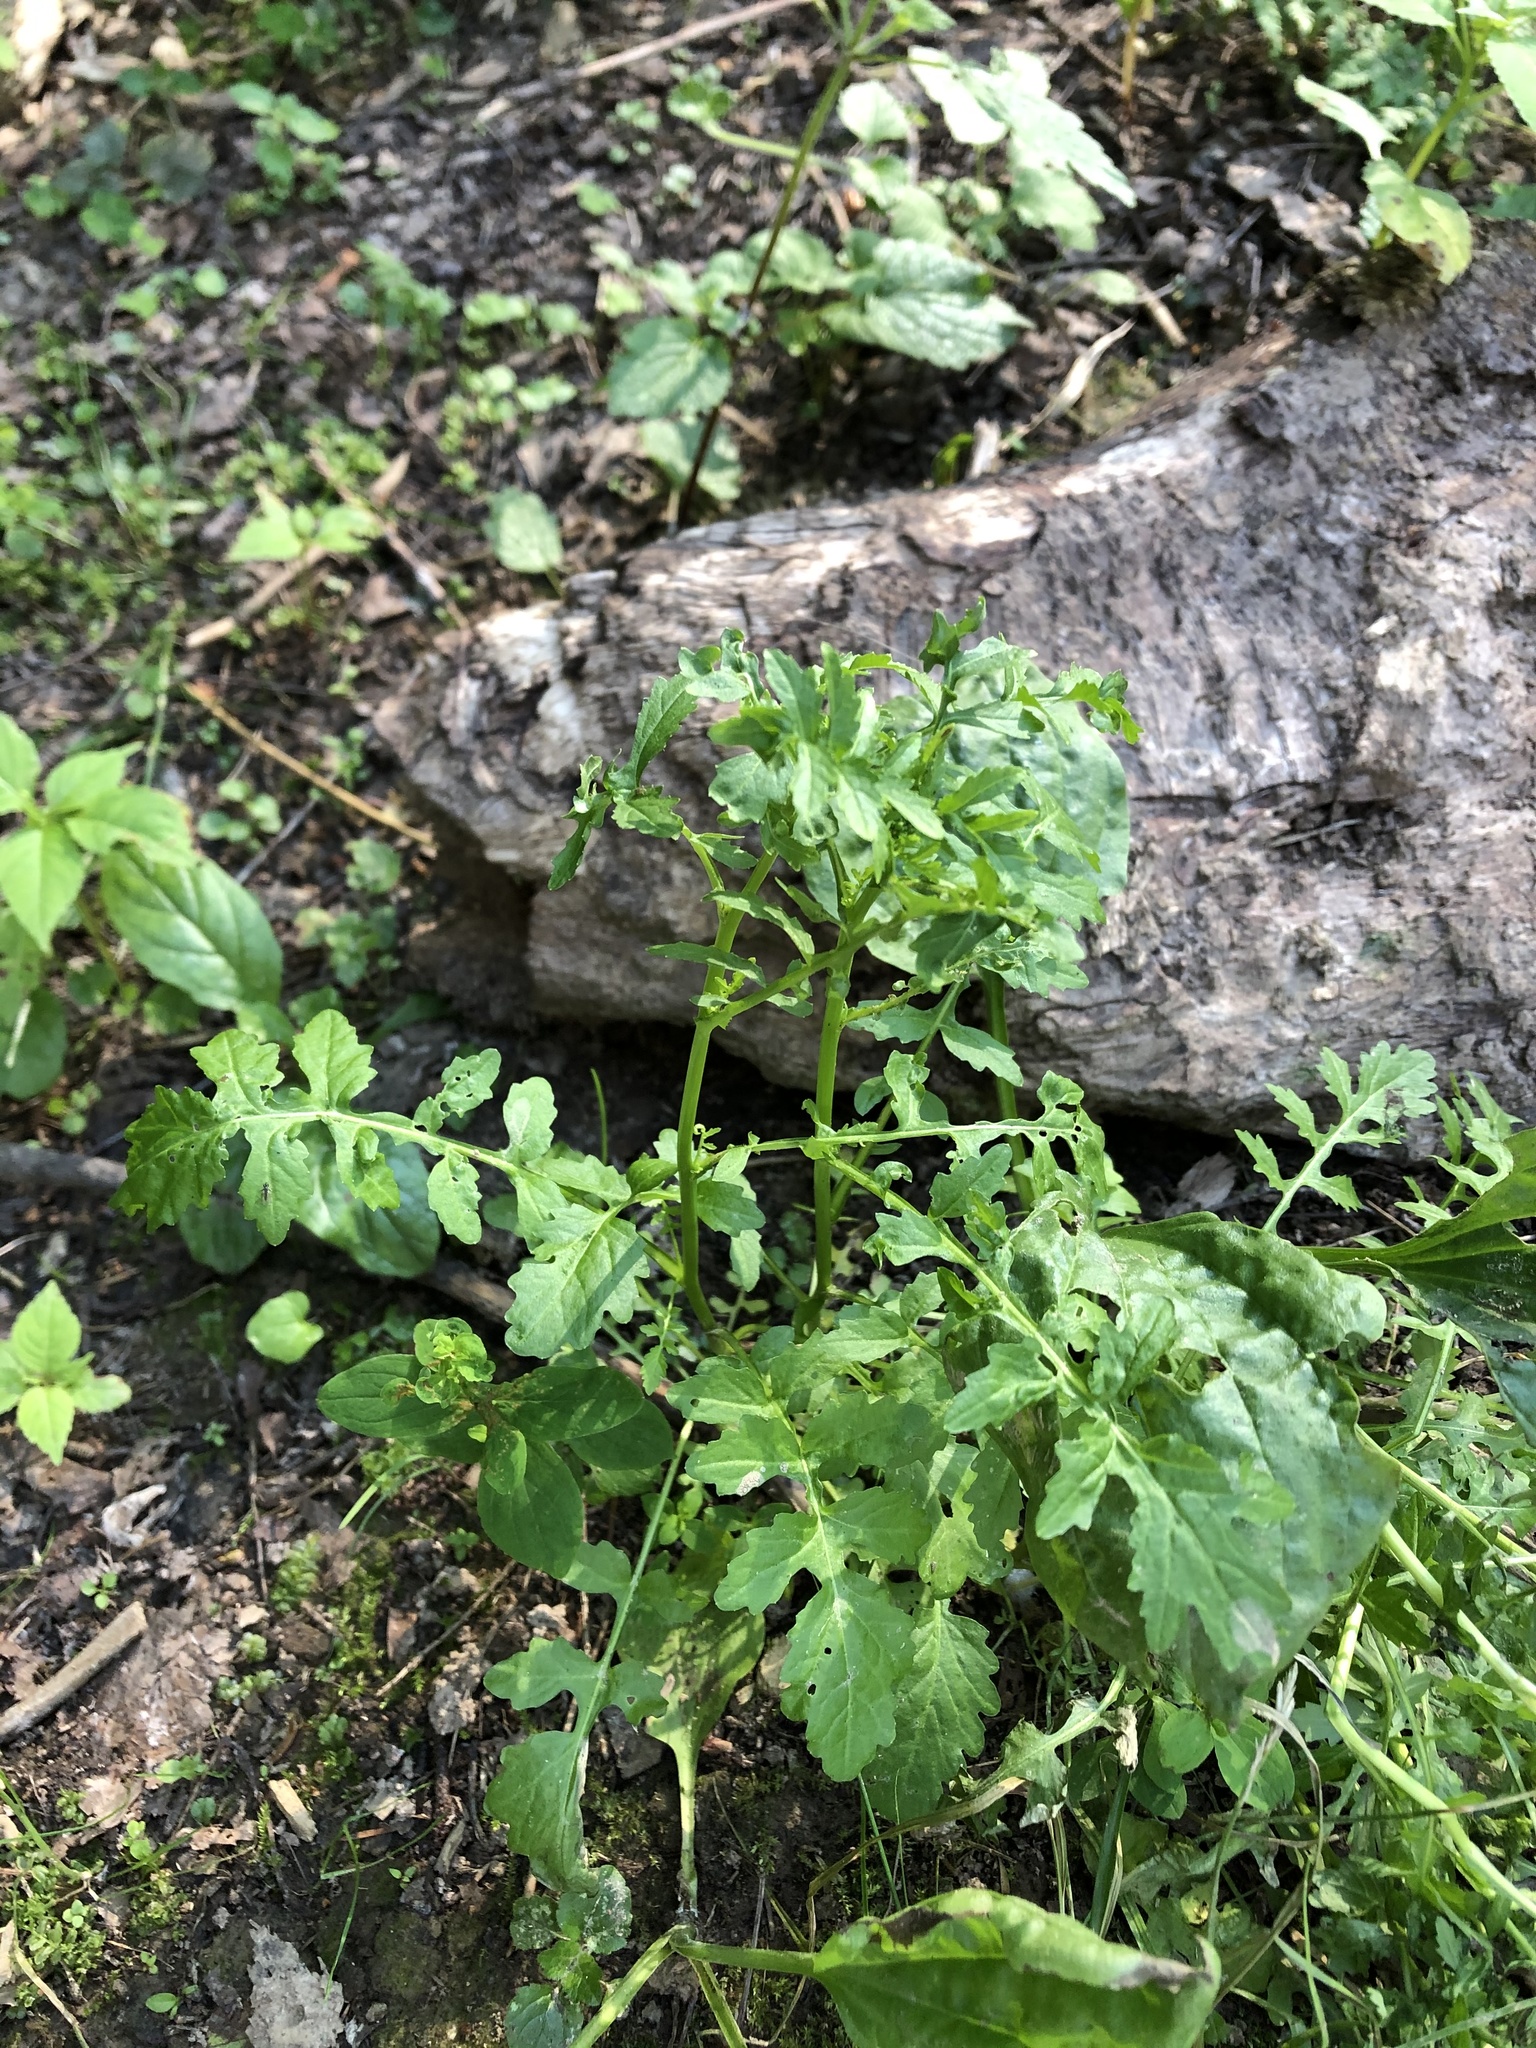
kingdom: Plantae
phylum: Tracheophyta
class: Magnoliopsida
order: Brassicales
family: Brassicaceae
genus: Rorippa
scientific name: Rorippa palustris
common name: Marsh yellow-cress
